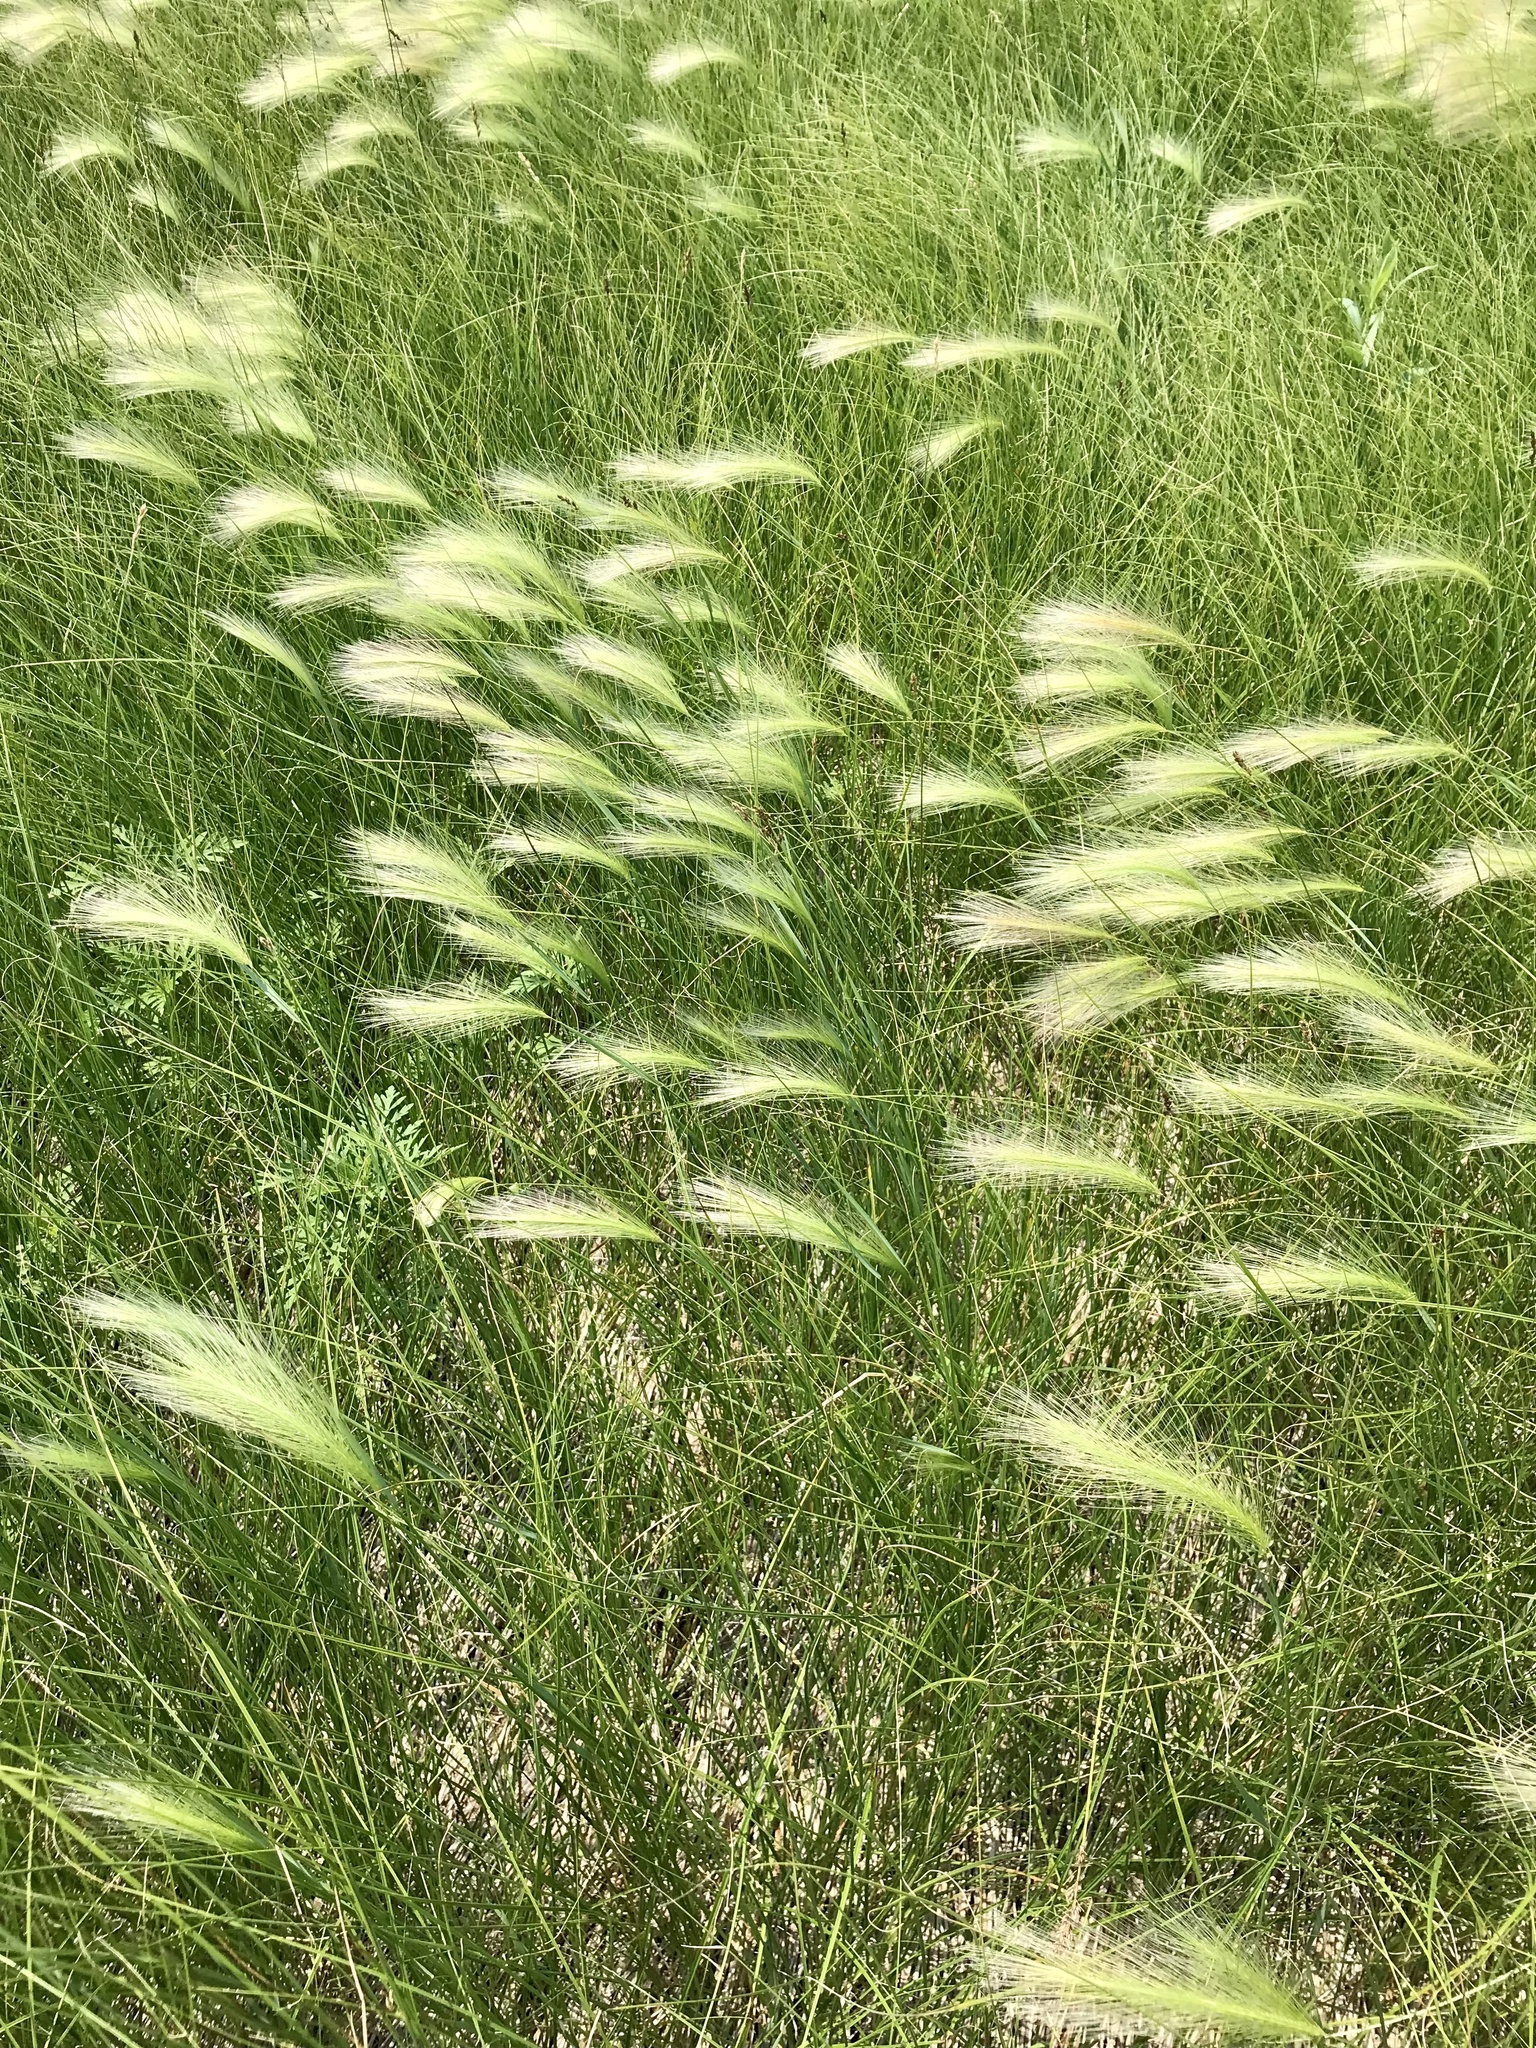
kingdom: Plantae
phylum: Tracheophyta
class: Liliopsida
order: Poales
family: Poaceae
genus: Hordeum
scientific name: Hordeum jubatum
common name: Foxtail barley
